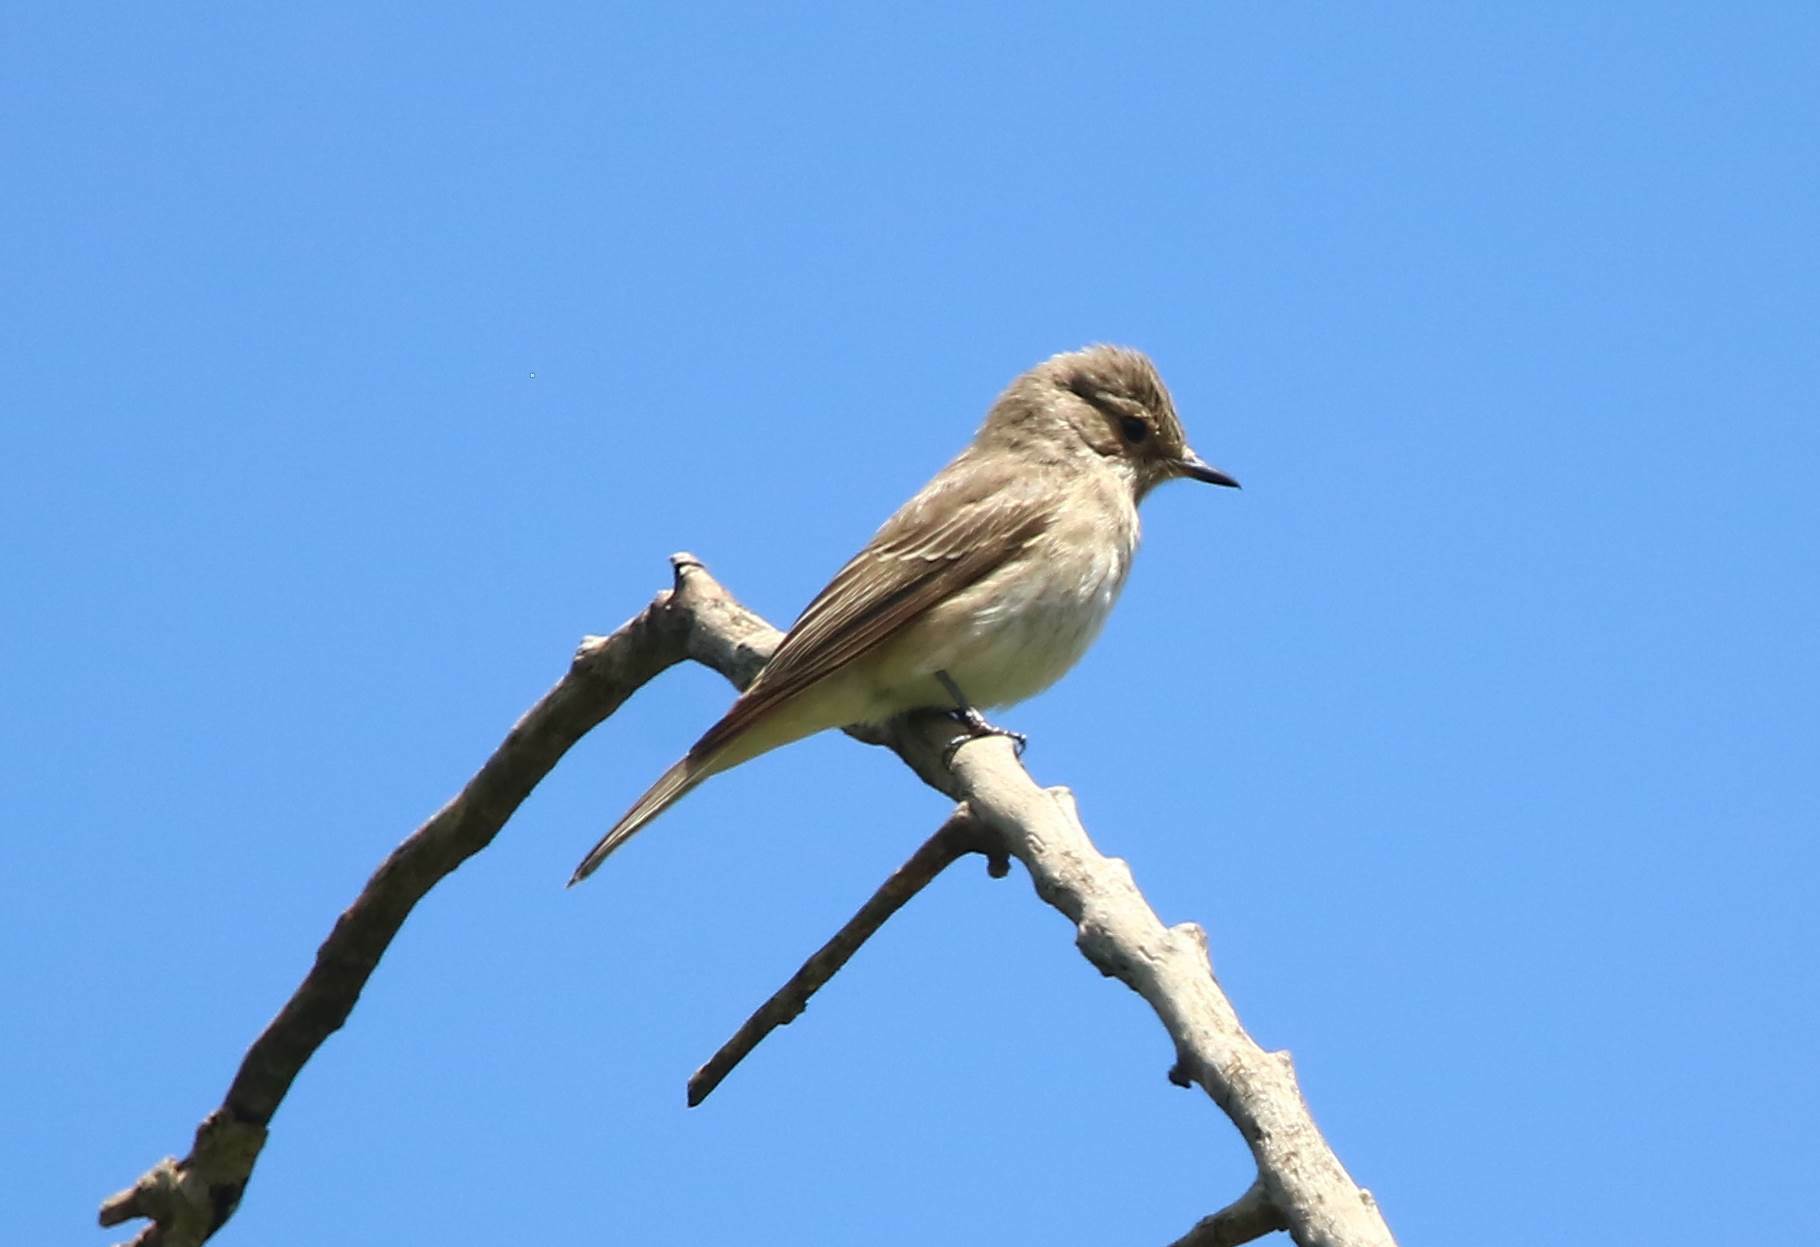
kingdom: Animalia
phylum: Chordata
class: Aves
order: Passeriformes
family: Muscicapidae
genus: Muscicapa
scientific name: Muscicapa striata
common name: Spotted flycatcher
